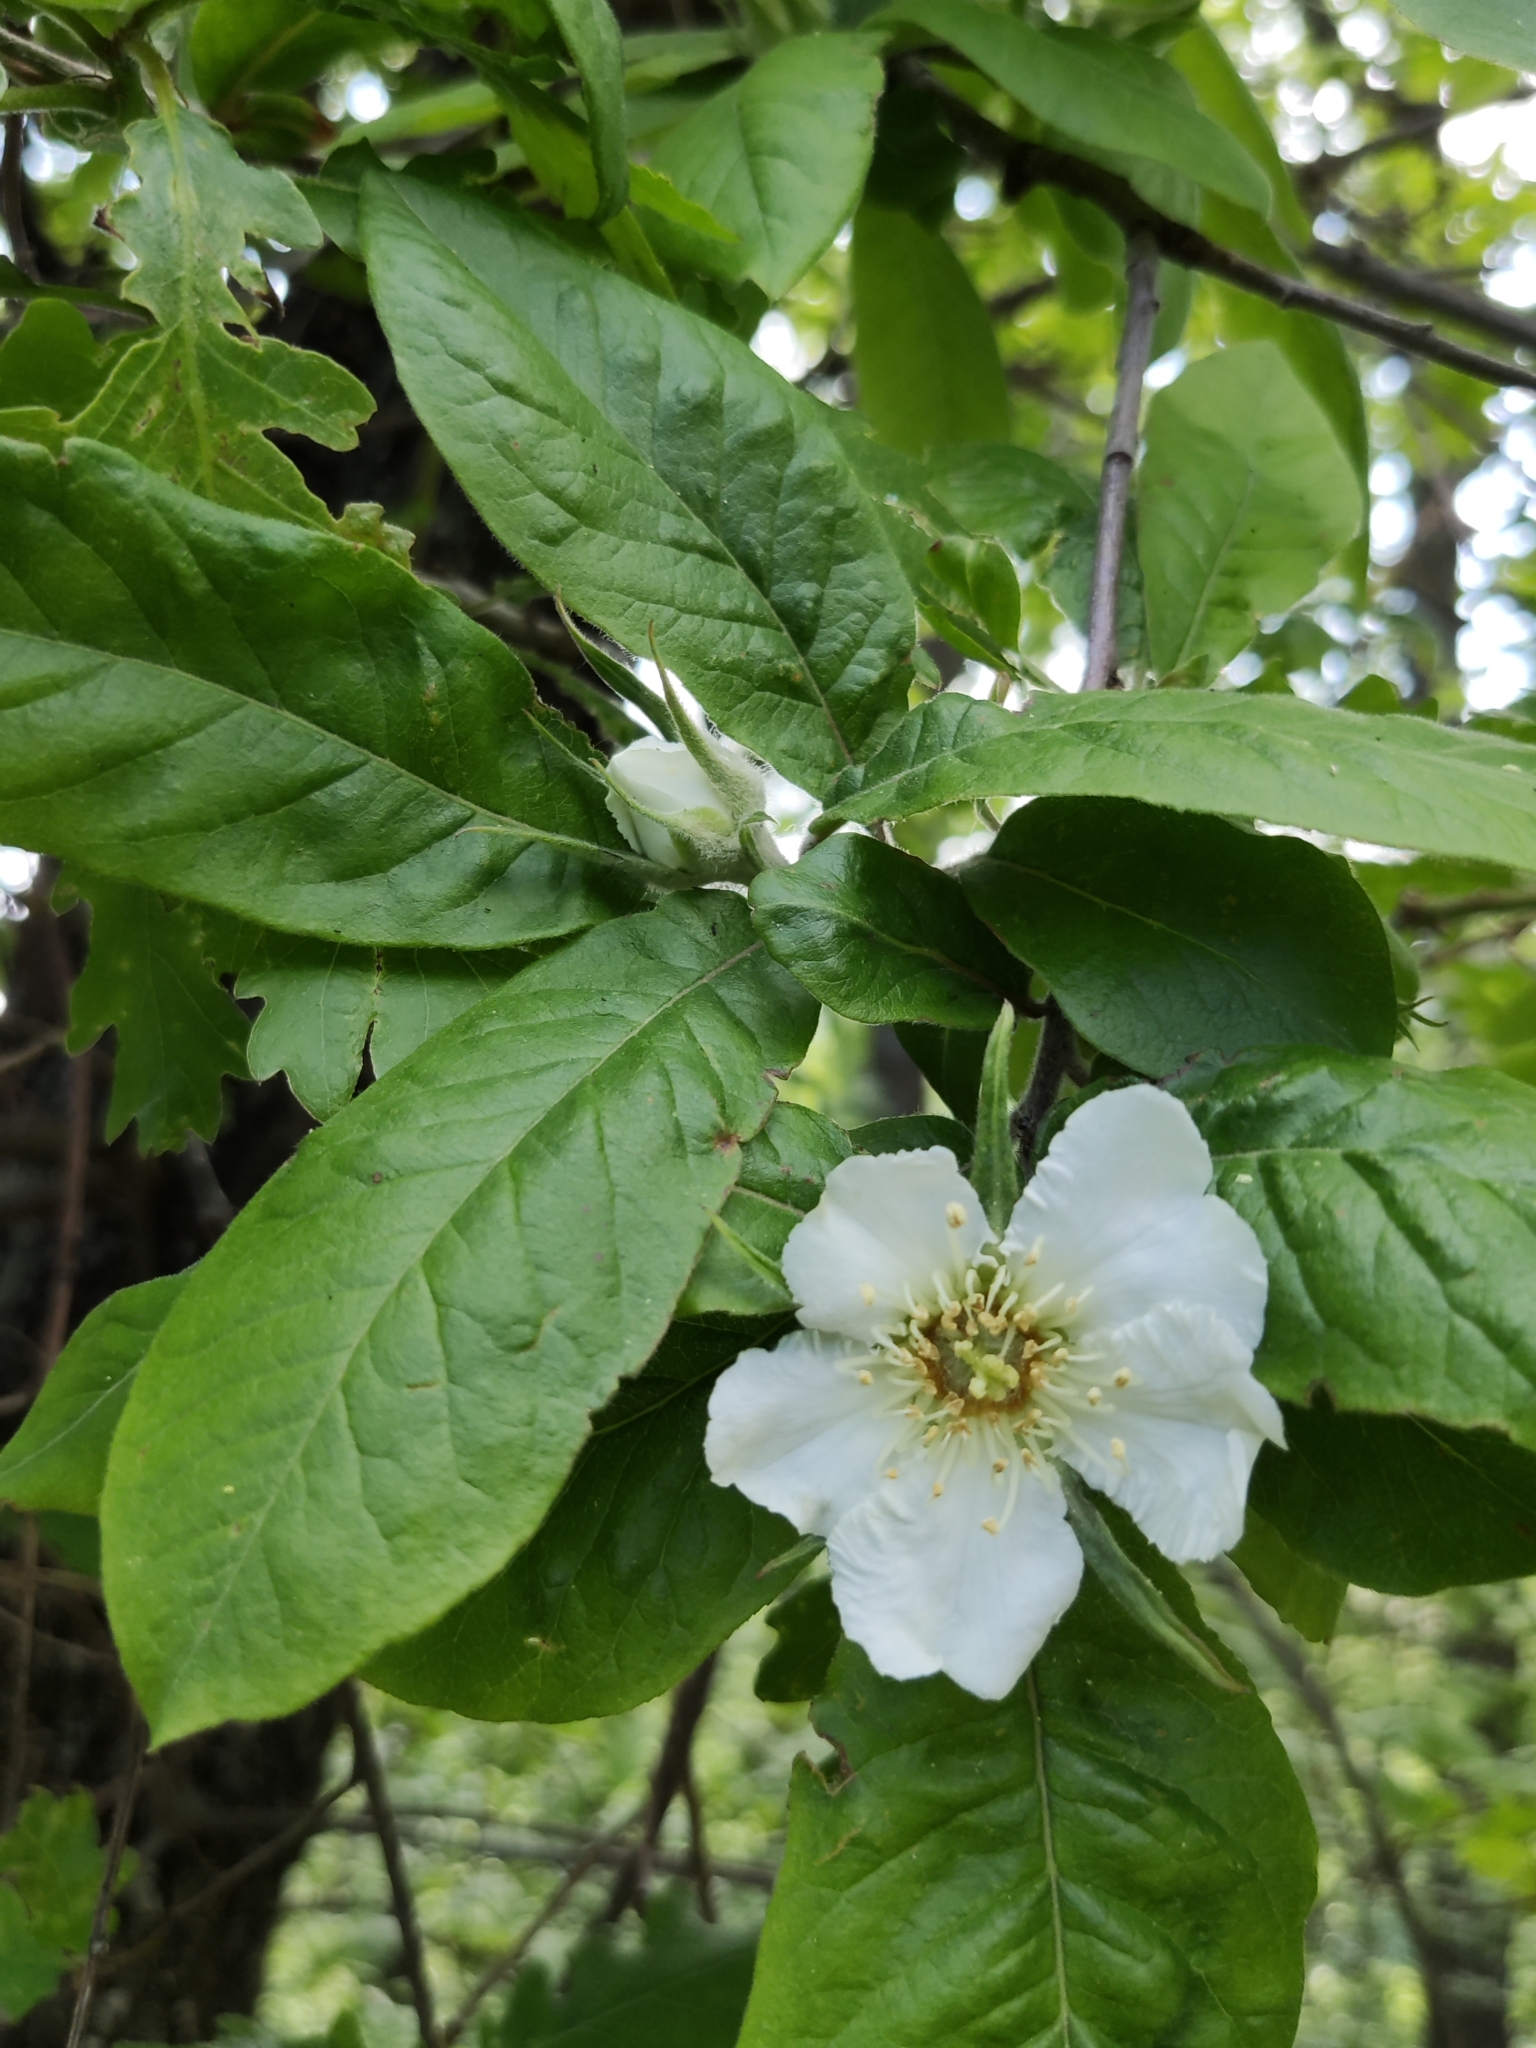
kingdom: Plantae
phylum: Tracheophyta
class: Magnoliopsida
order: Rosales
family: Rosaceae
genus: Mespilus
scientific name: Mespilus germanica
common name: Medlar
